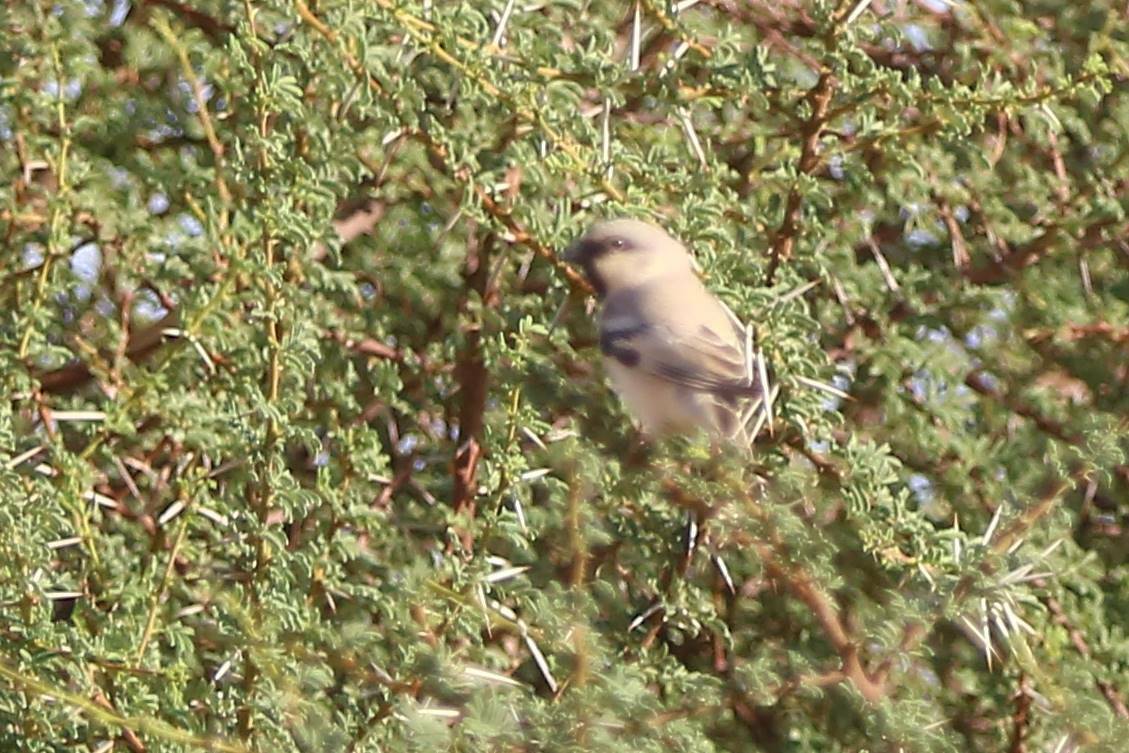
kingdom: Animalia
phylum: Chordata
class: Aves
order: Passeriformes
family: Passeridae
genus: Passer
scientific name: Passer simplex
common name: Desert sparrow
